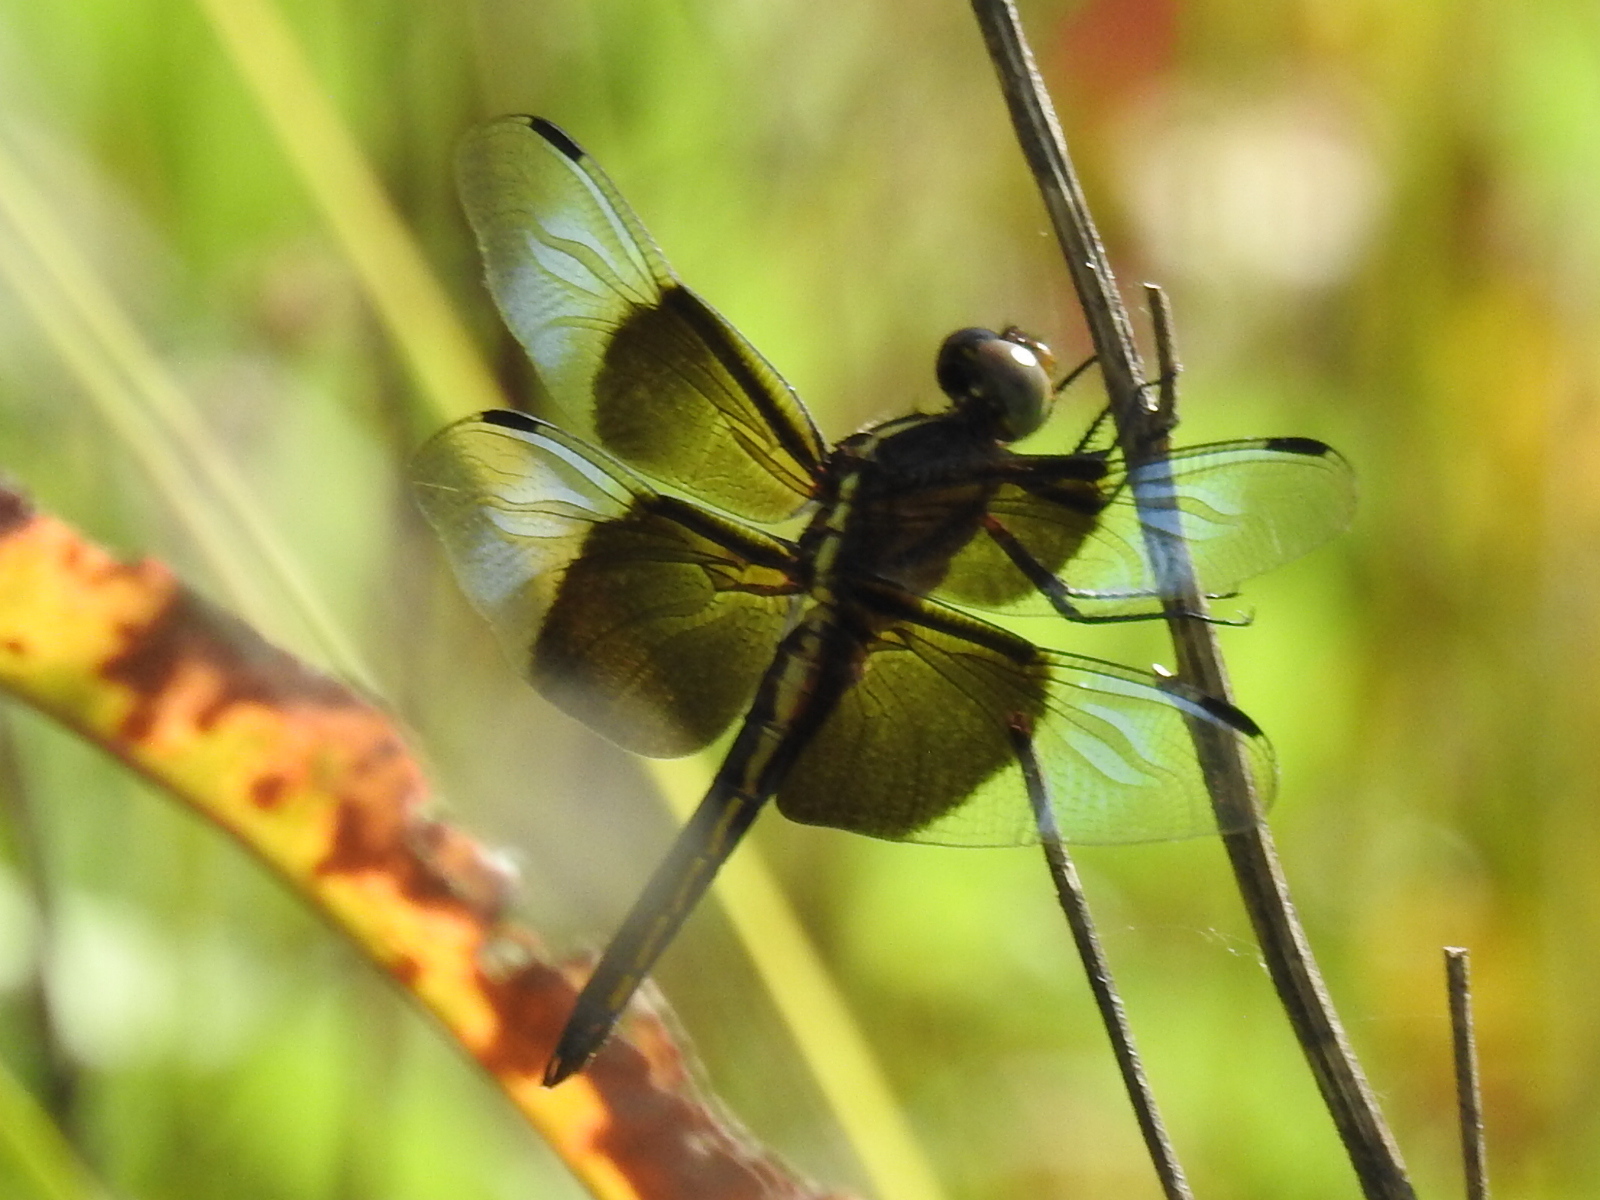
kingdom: Animalia
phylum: Arthropoda
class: Insecta
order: Odonata
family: Libellulidae
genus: Libellula
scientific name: Libellula luctuosa
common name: Widow skimmer
